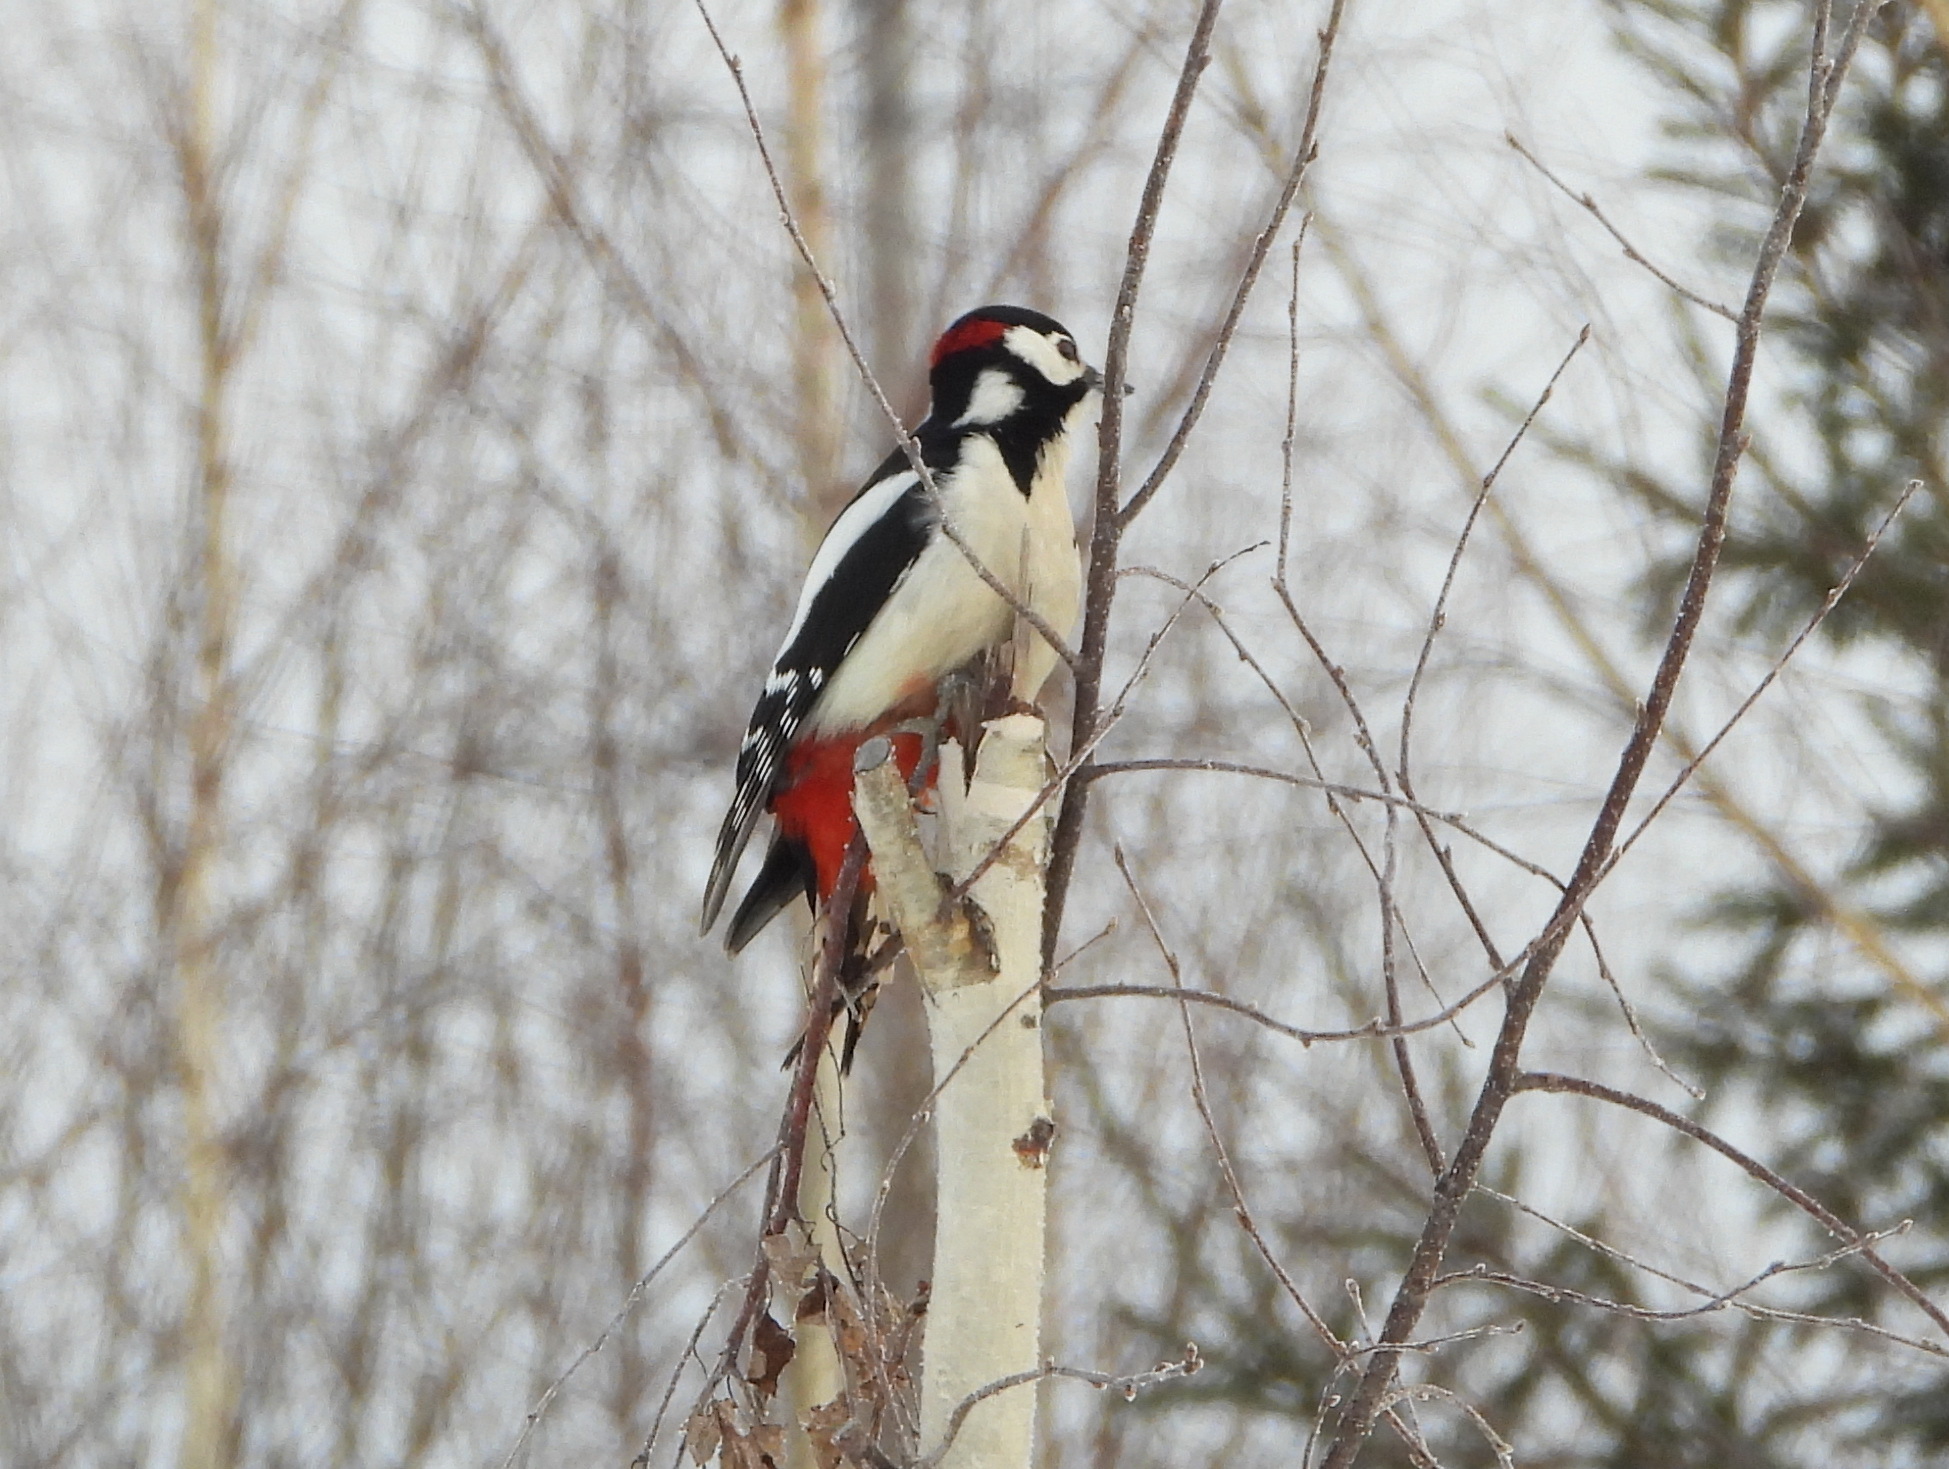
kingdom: Animalia
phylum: Chordata
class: Aves
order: Piciformes
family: Picidae
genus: Dendrocopos
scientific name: Dendrocopos major
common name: Great spotted woodpecker
